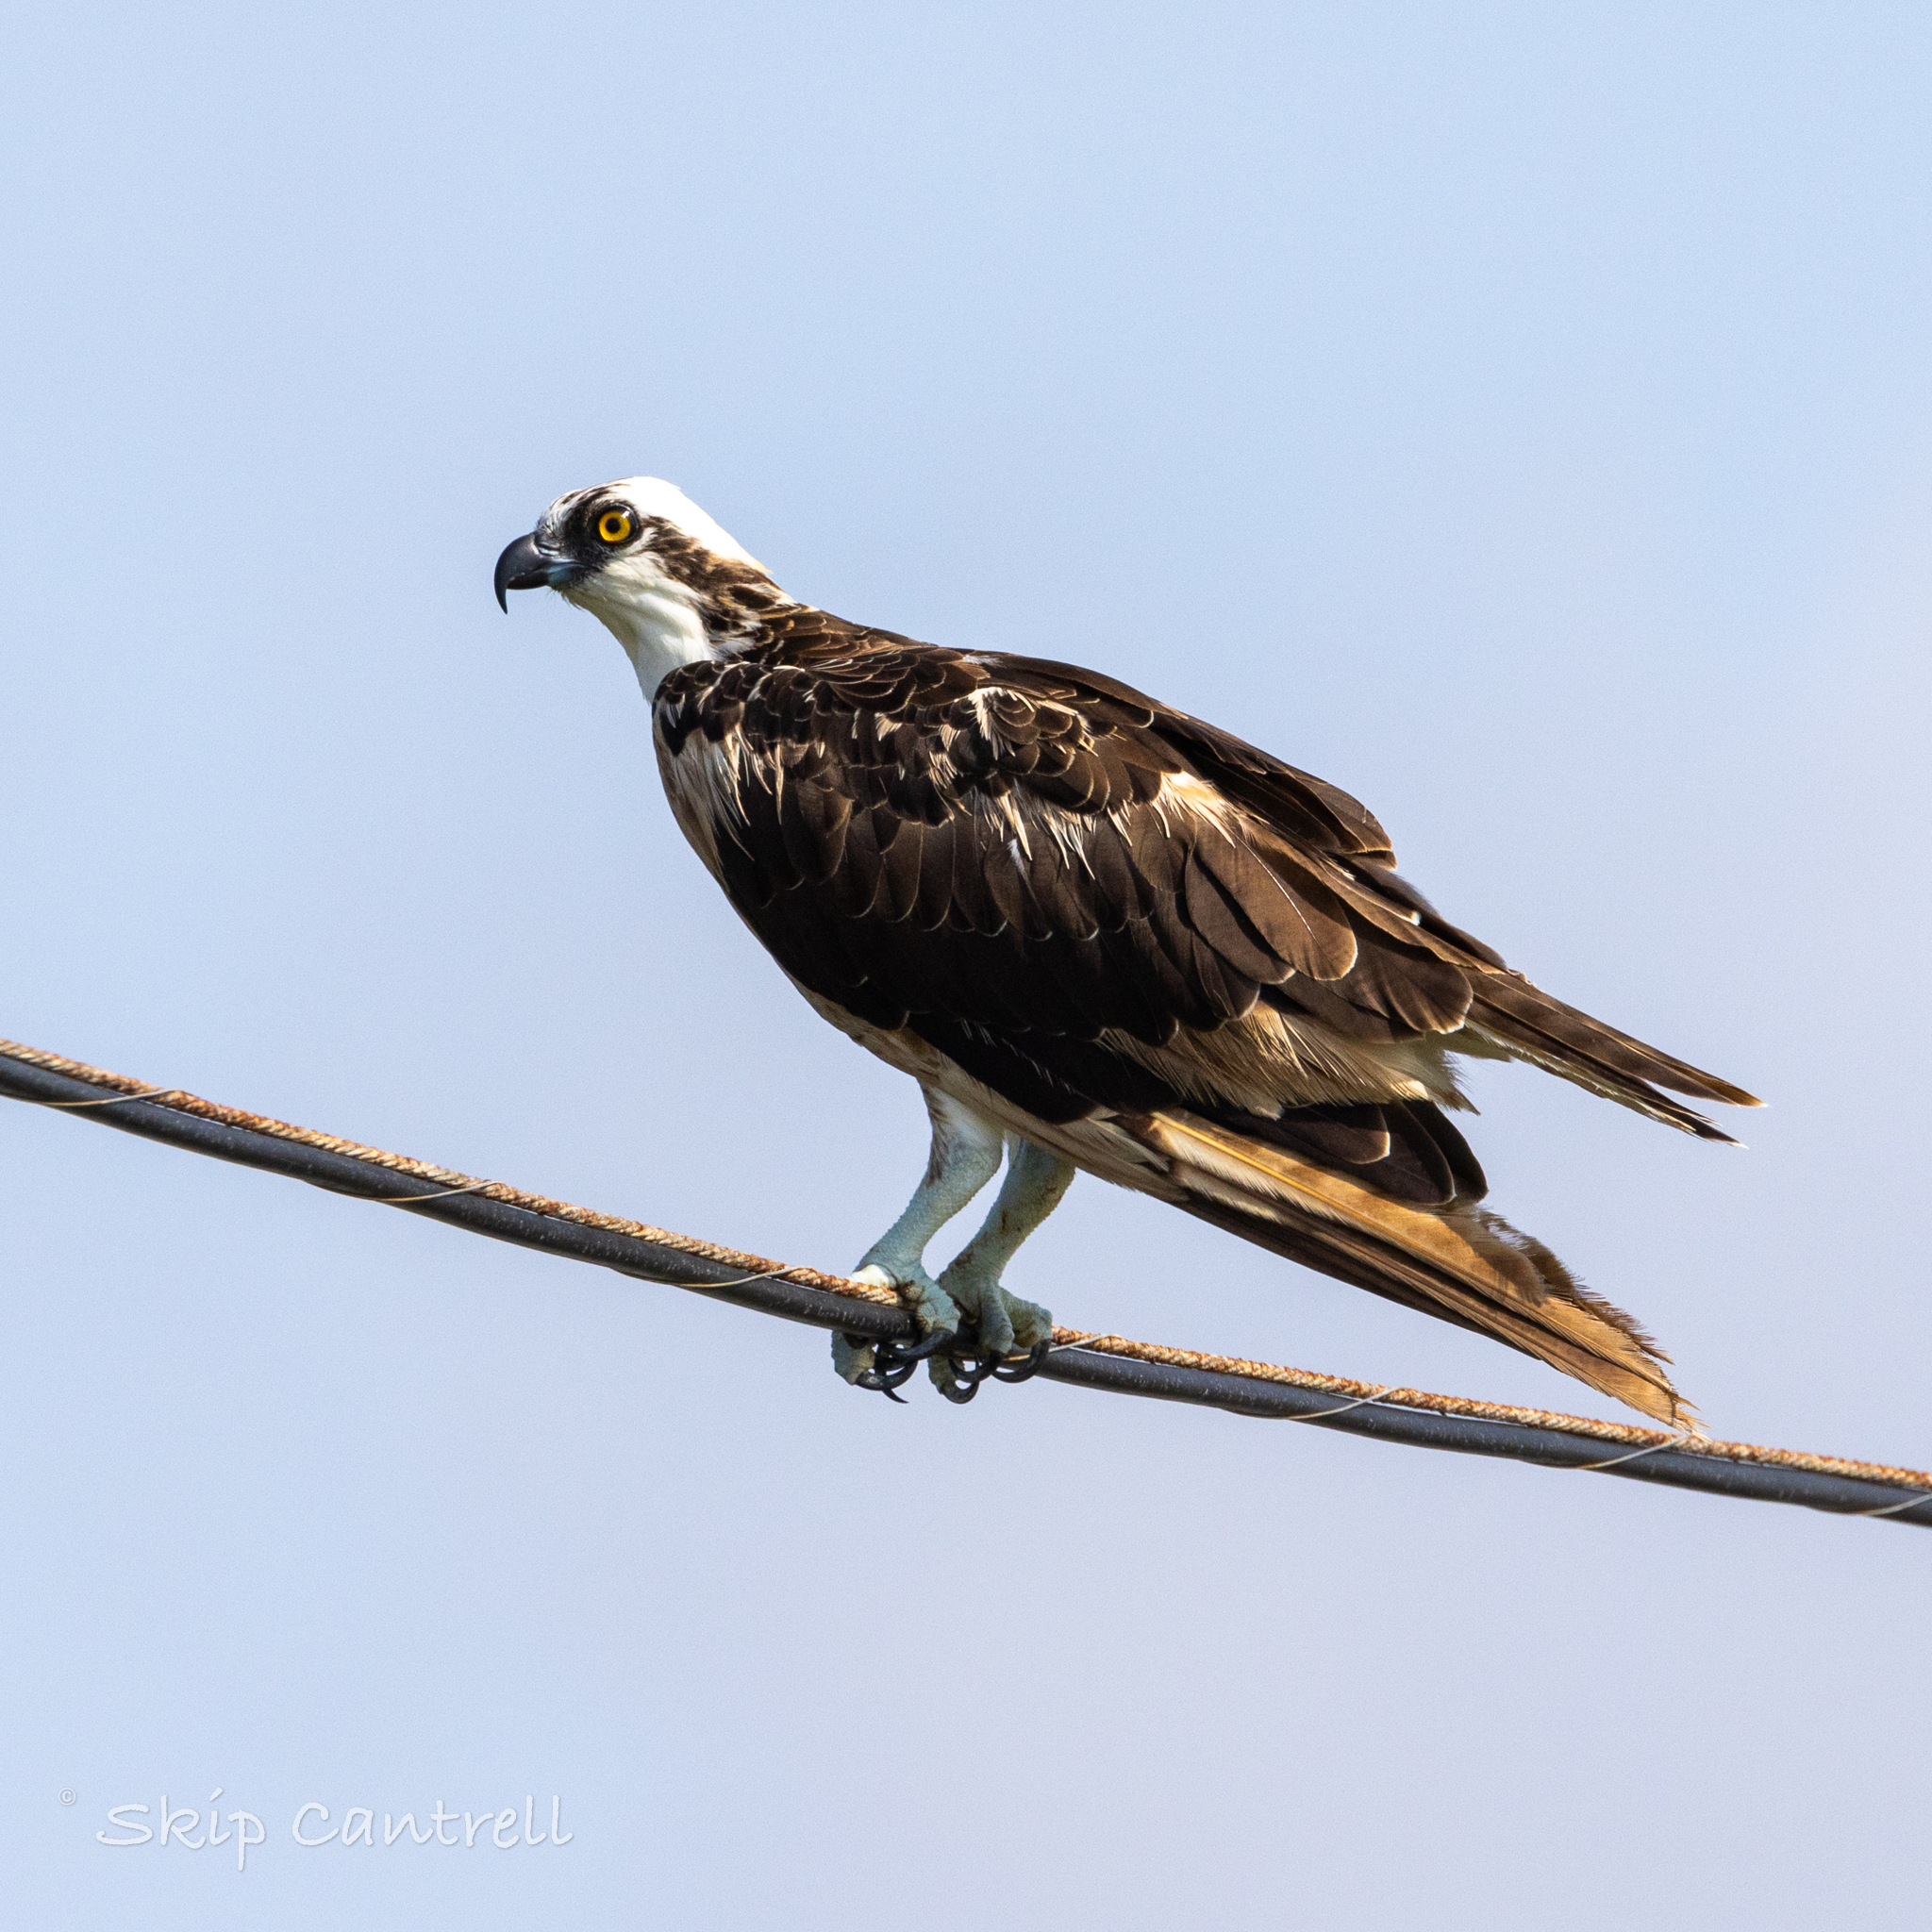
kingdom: Animalia
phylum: Chordata
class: Aves
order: Accipitriformes
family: Pandionidae
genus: Pandion
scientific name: Pandion haliaetus
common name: Osprey
